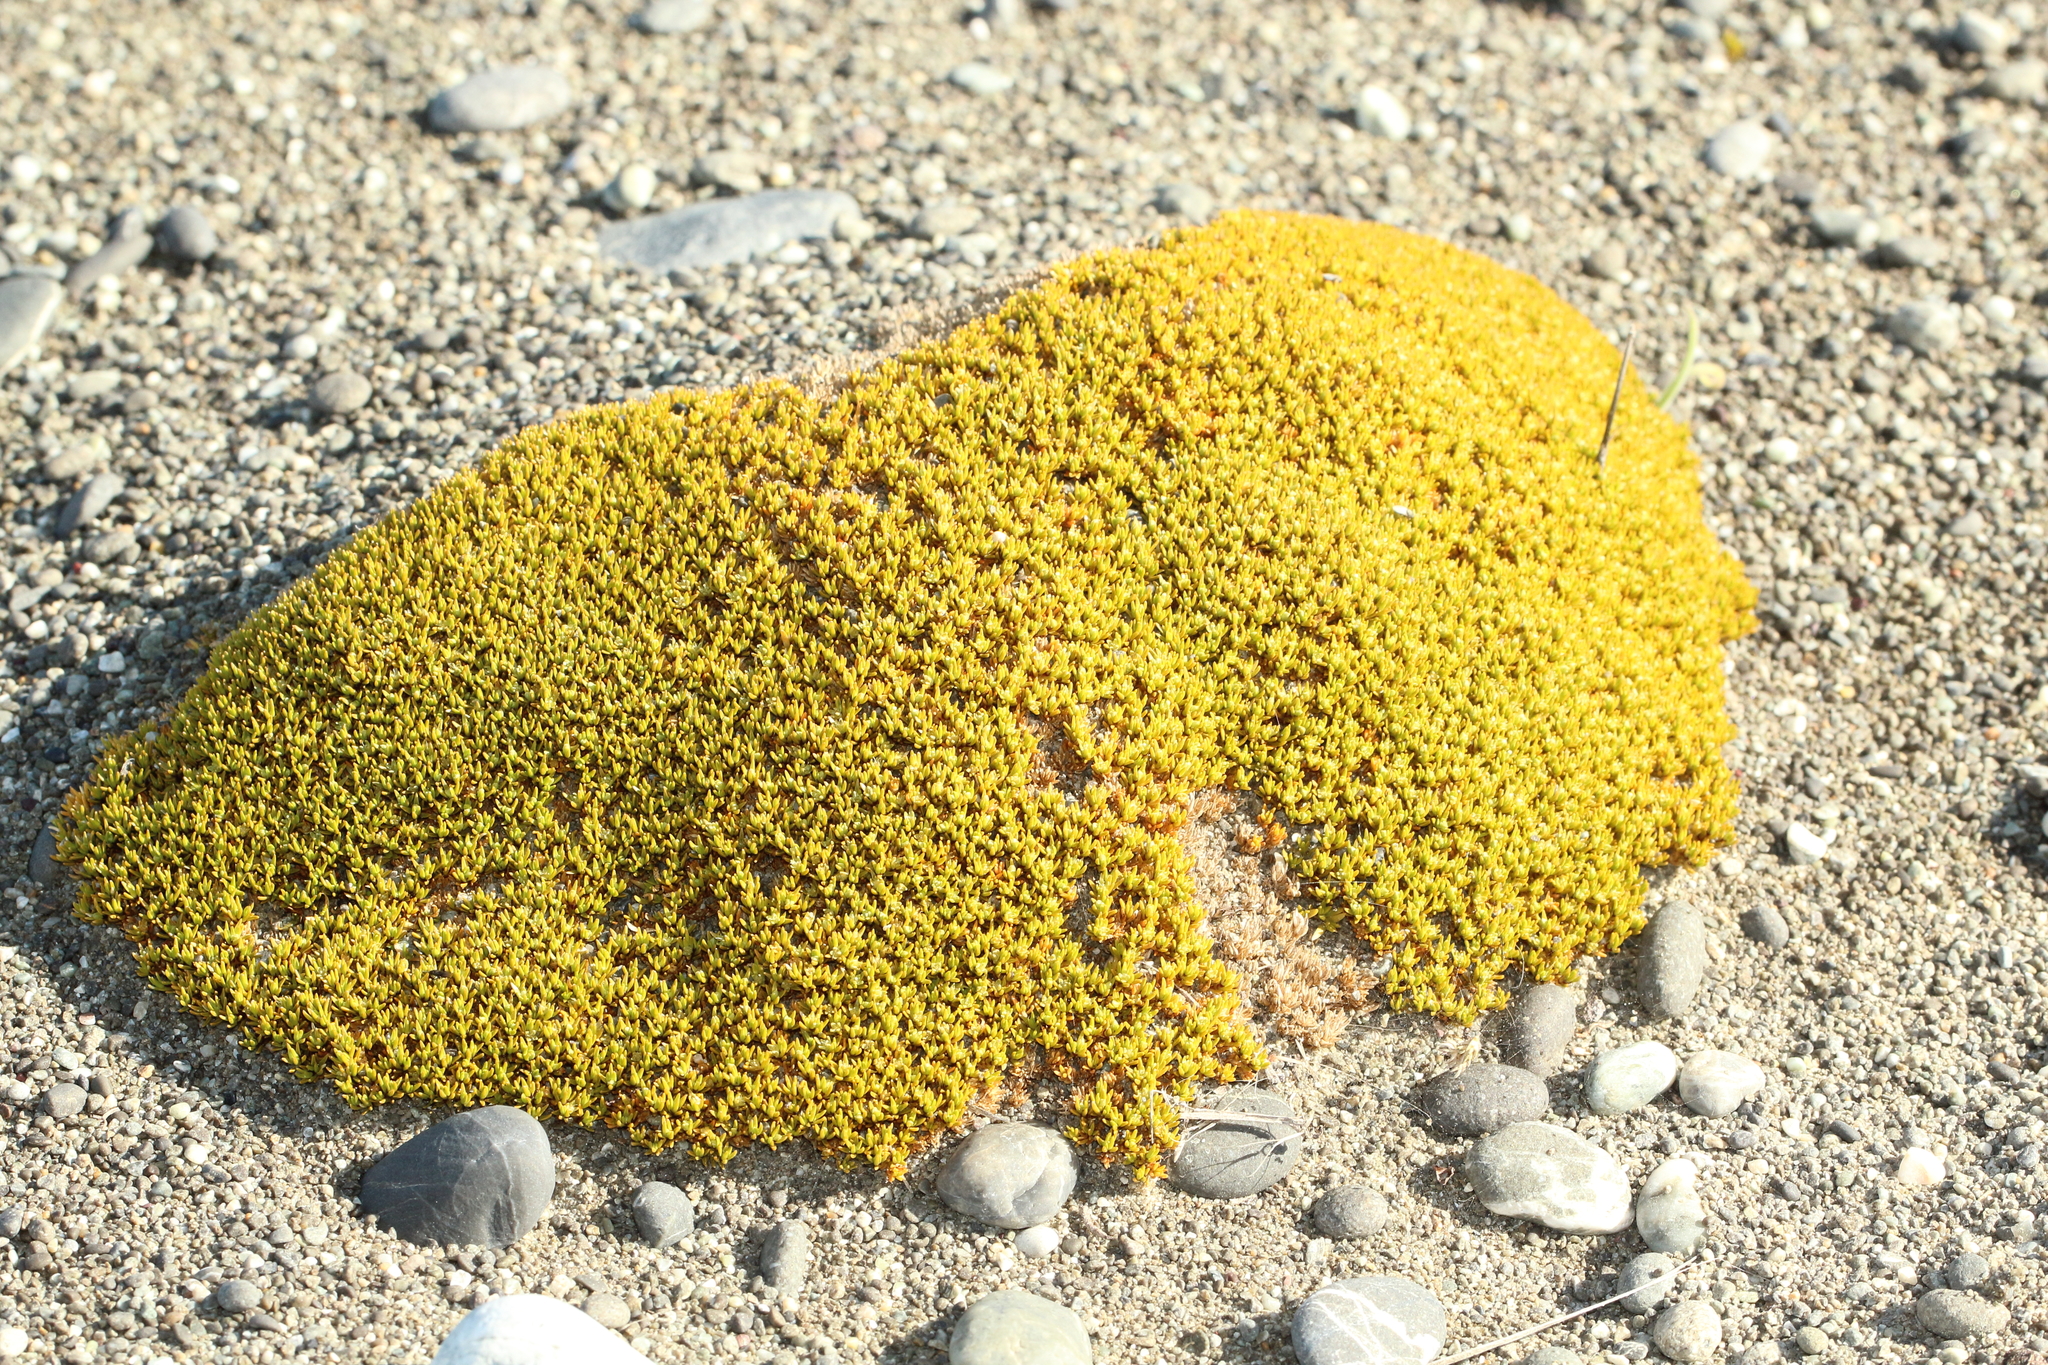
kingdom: Plantae
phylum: Tracheophyta
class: Magnoliopsida
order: Caryophyllales
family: Caryophyllaceae
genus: Scleranthus
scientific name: Scleranthus uniflorus
